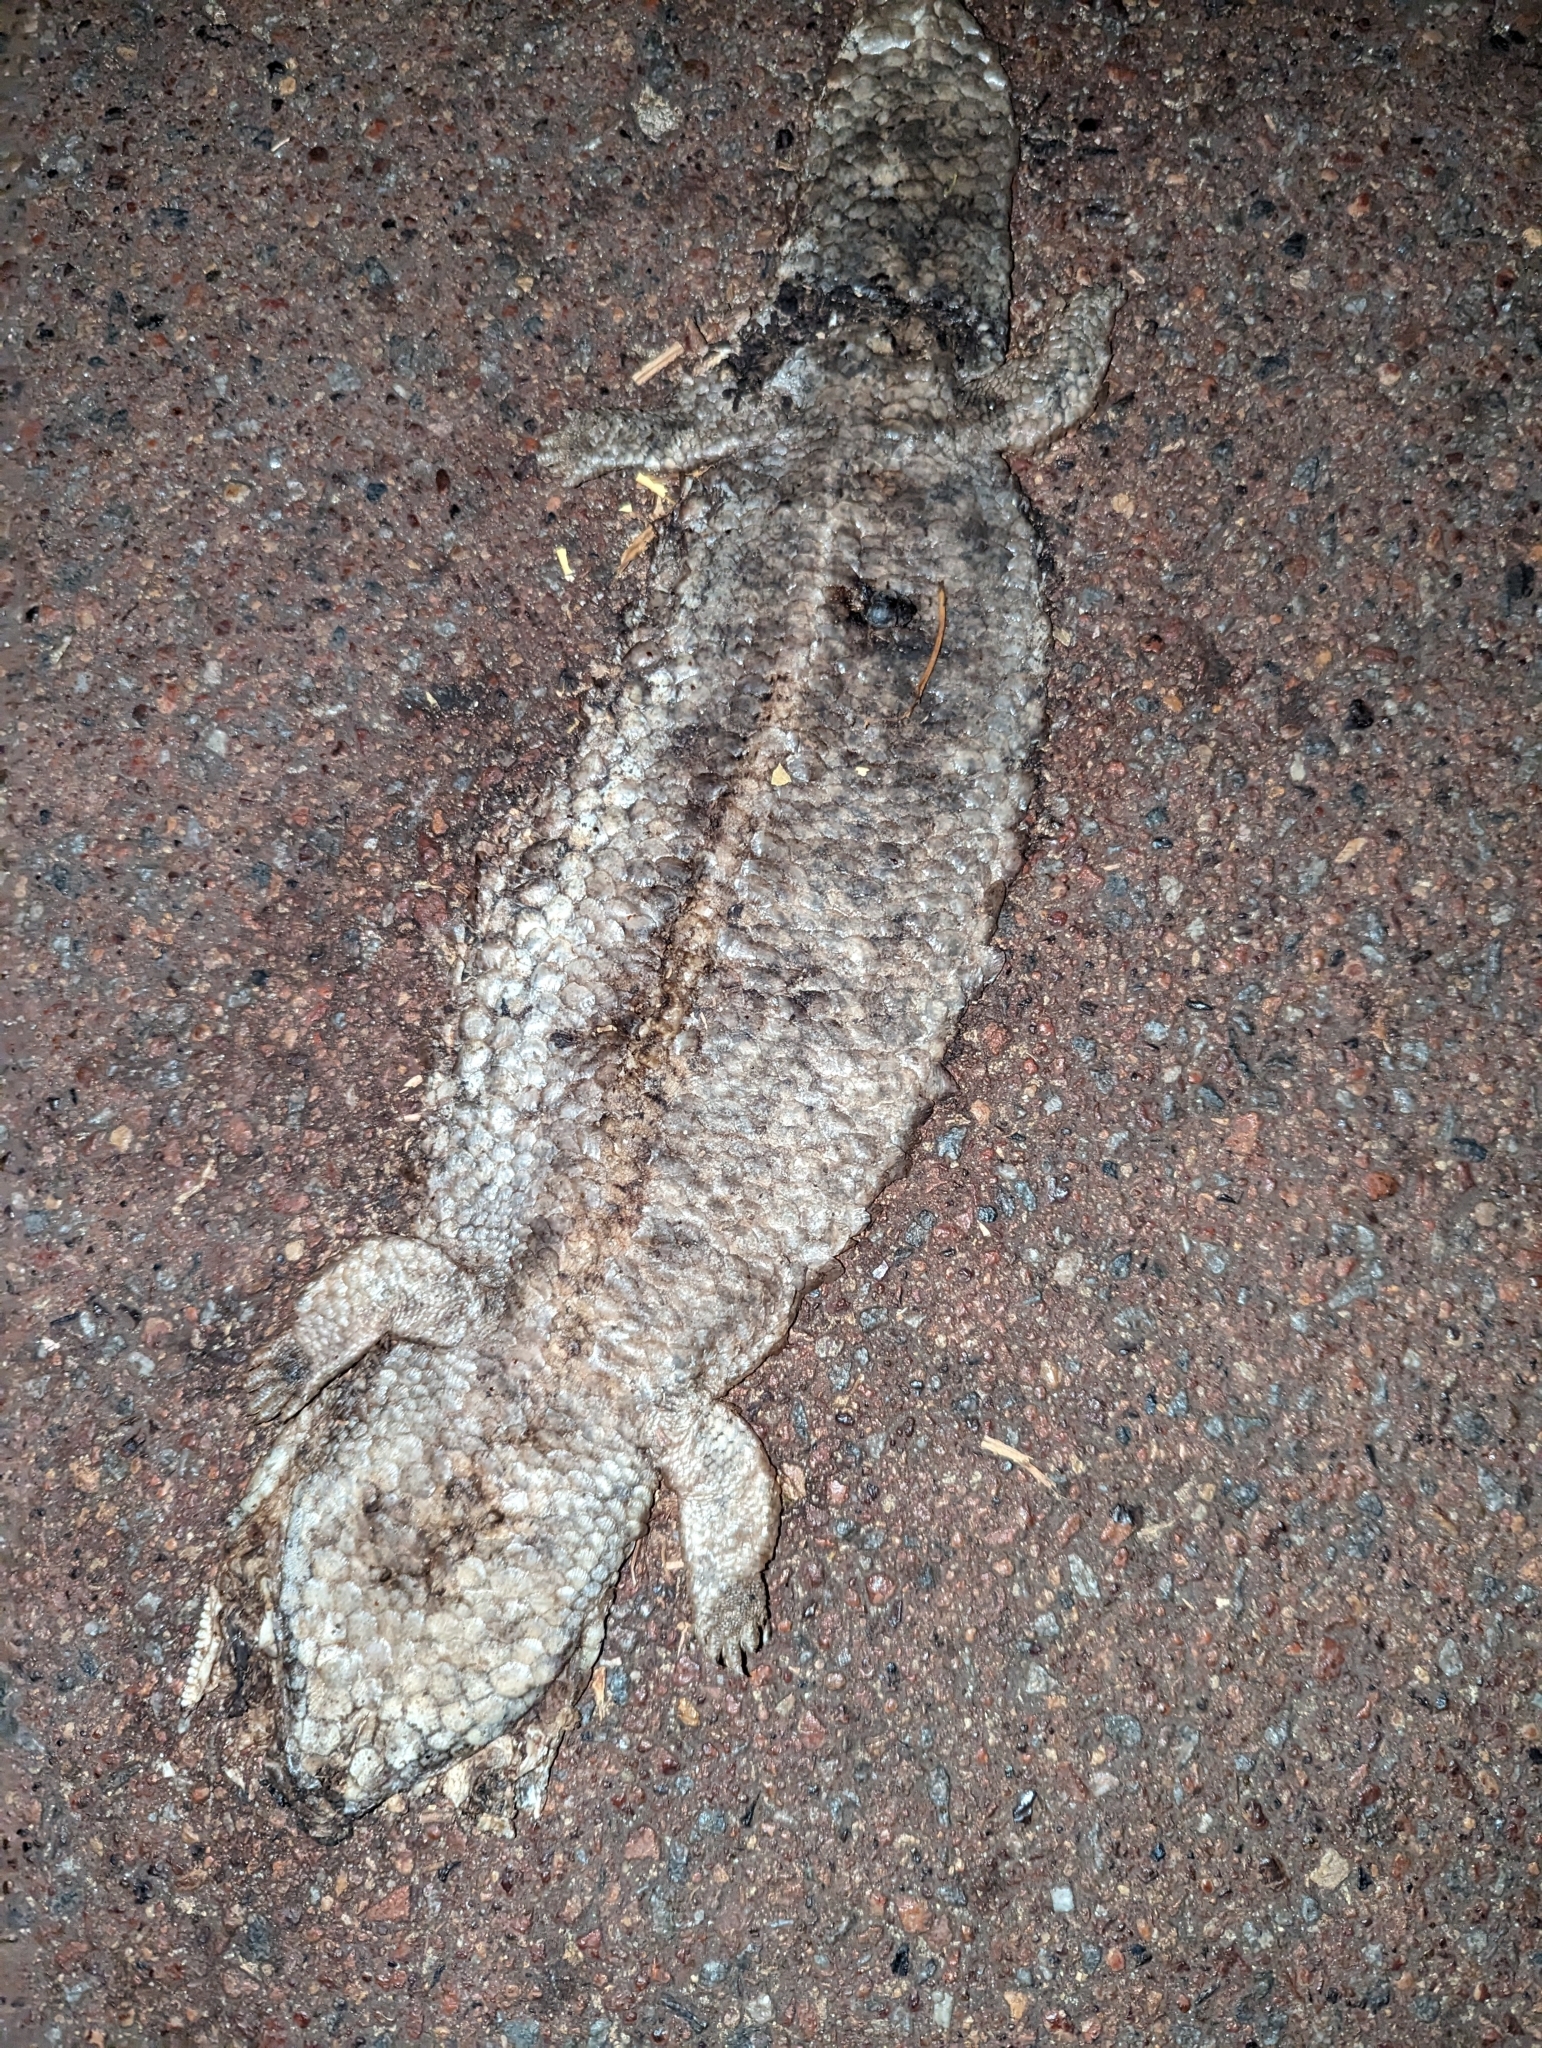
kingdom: Animalia
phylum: Chordata
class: Squamata
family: Scincidae
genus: Tiliqua
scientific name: Tiliqua rugosa
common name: Pinecone lizard
